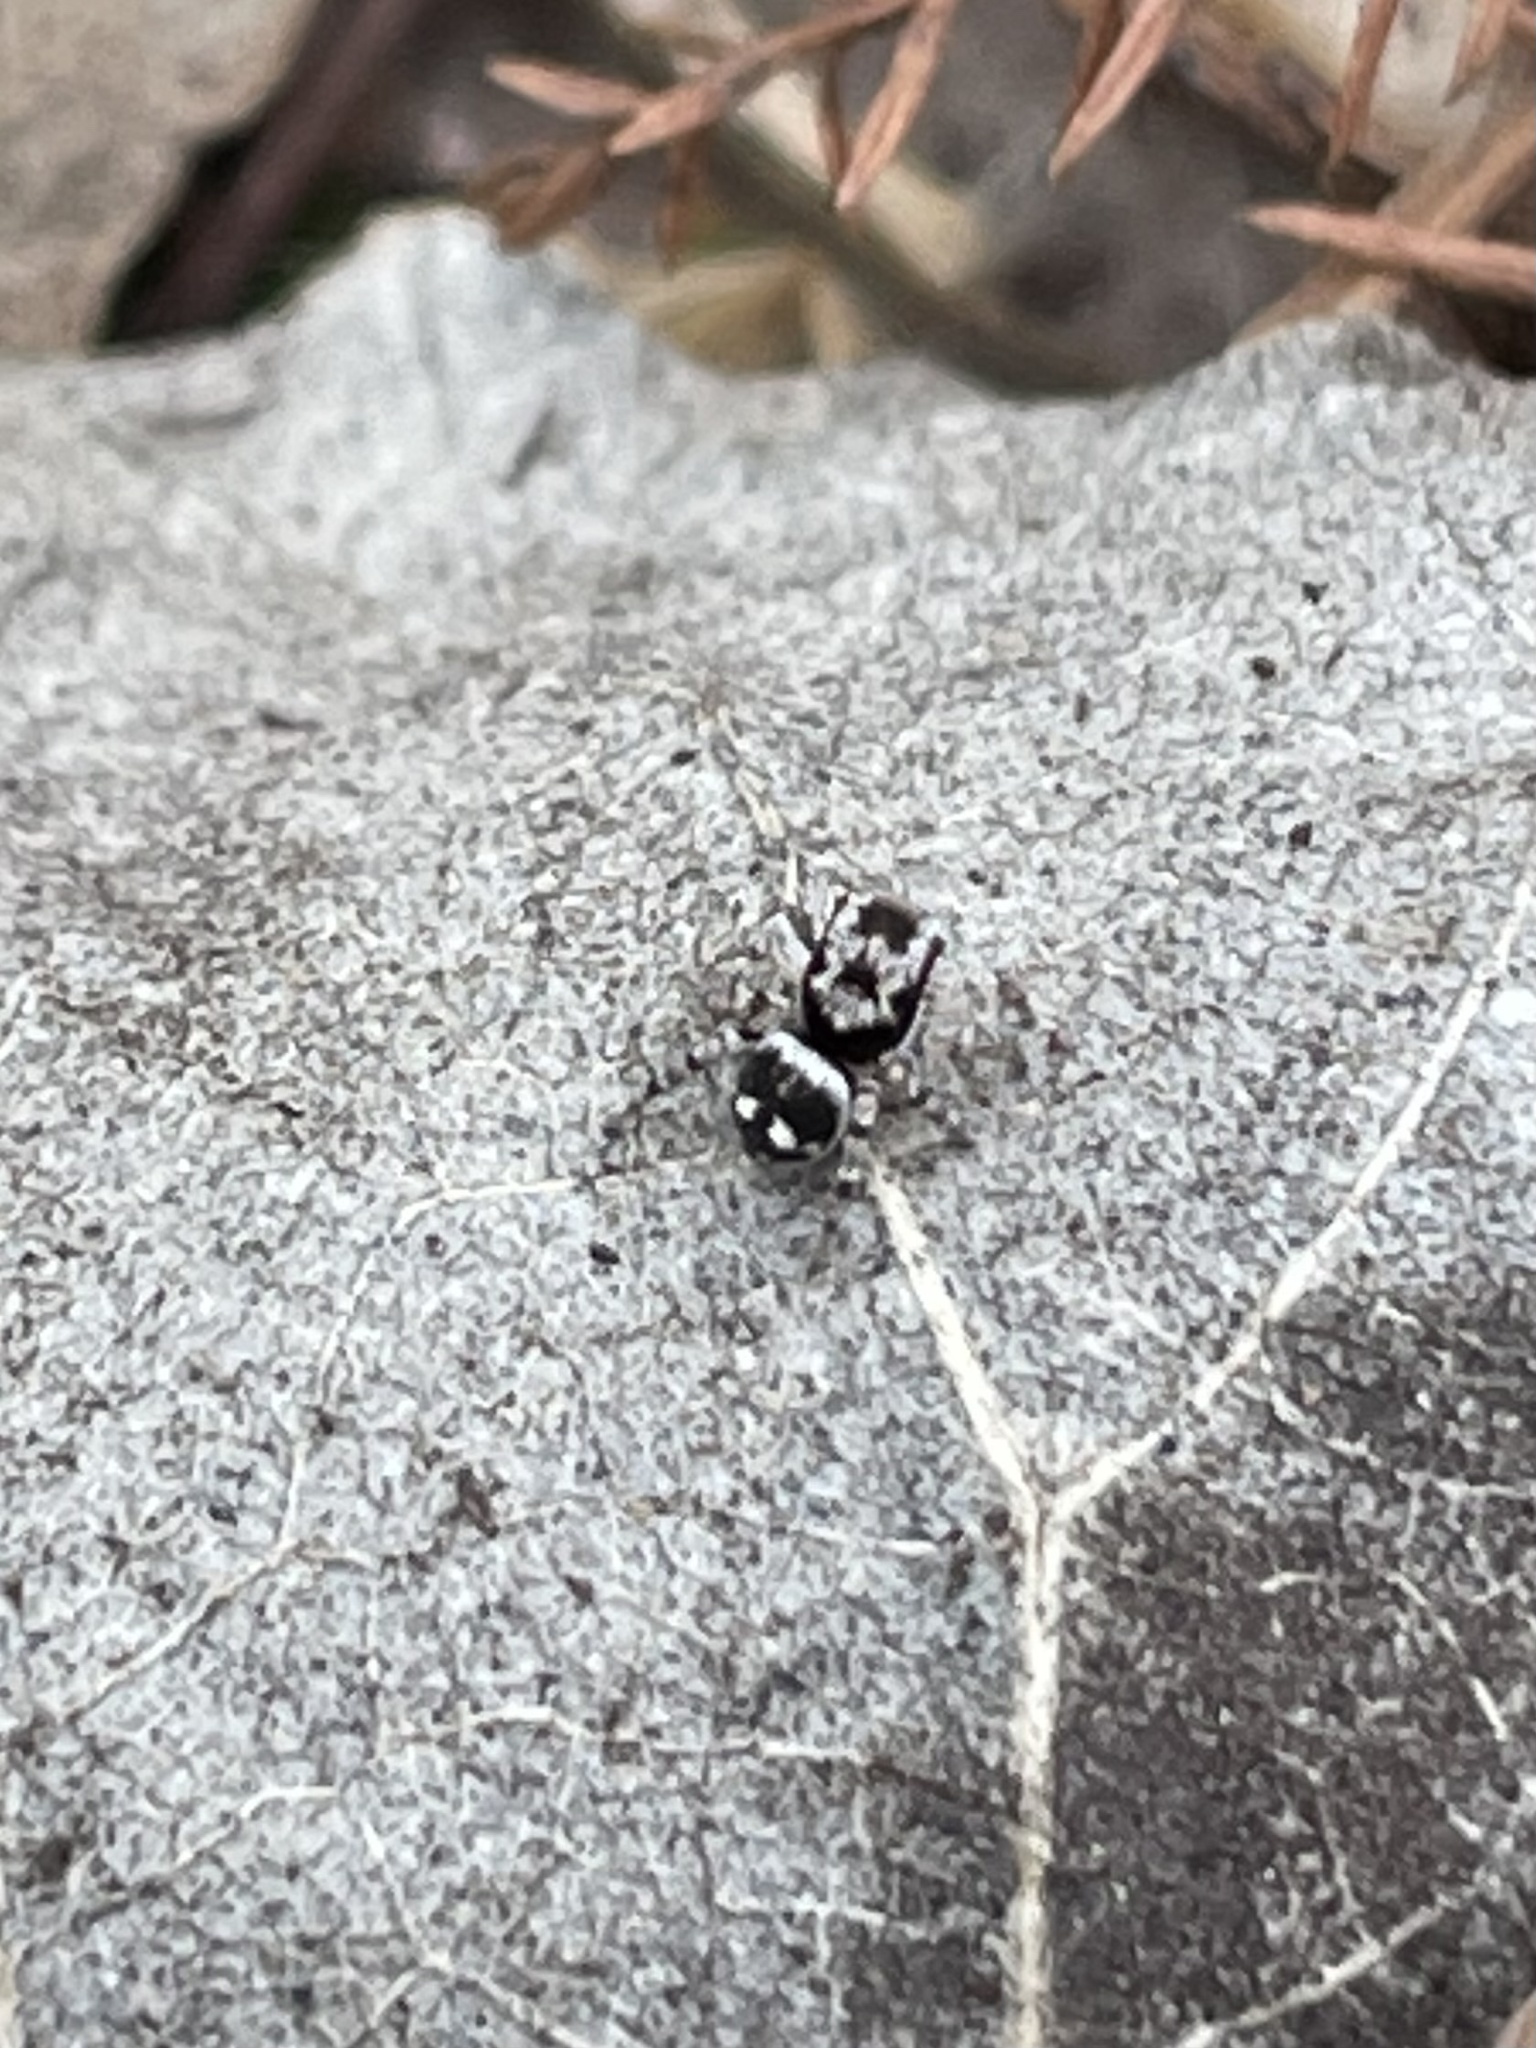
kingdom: Animalia
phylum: Arthropoda
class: Arachnida
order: Araneae
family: Salticidae
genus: Naphrys
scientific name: Naphrys acerba
